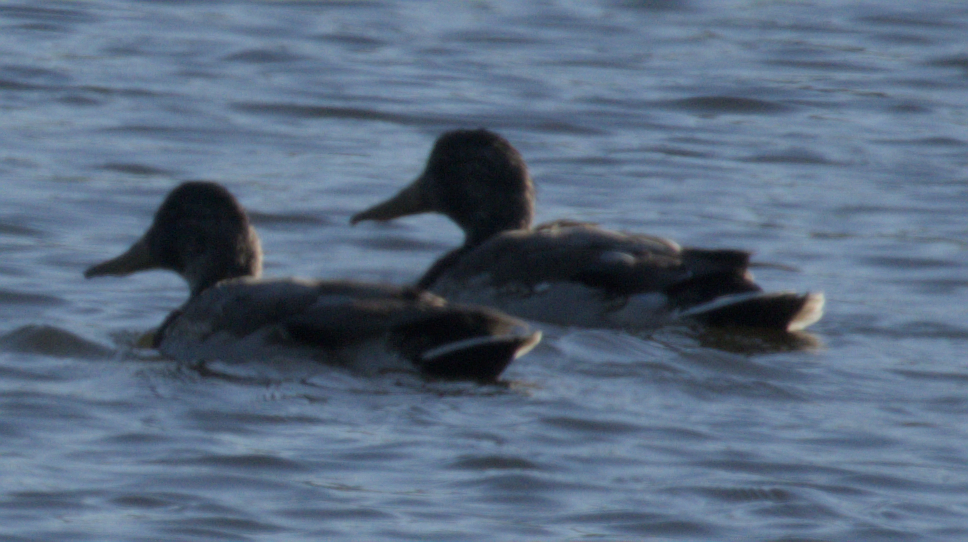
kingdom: Animalia
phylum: Chordata
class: Aves
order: Anseriformes
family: Anatidae
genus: Anas
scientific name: Anas platyrhynchos
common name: Mallard
